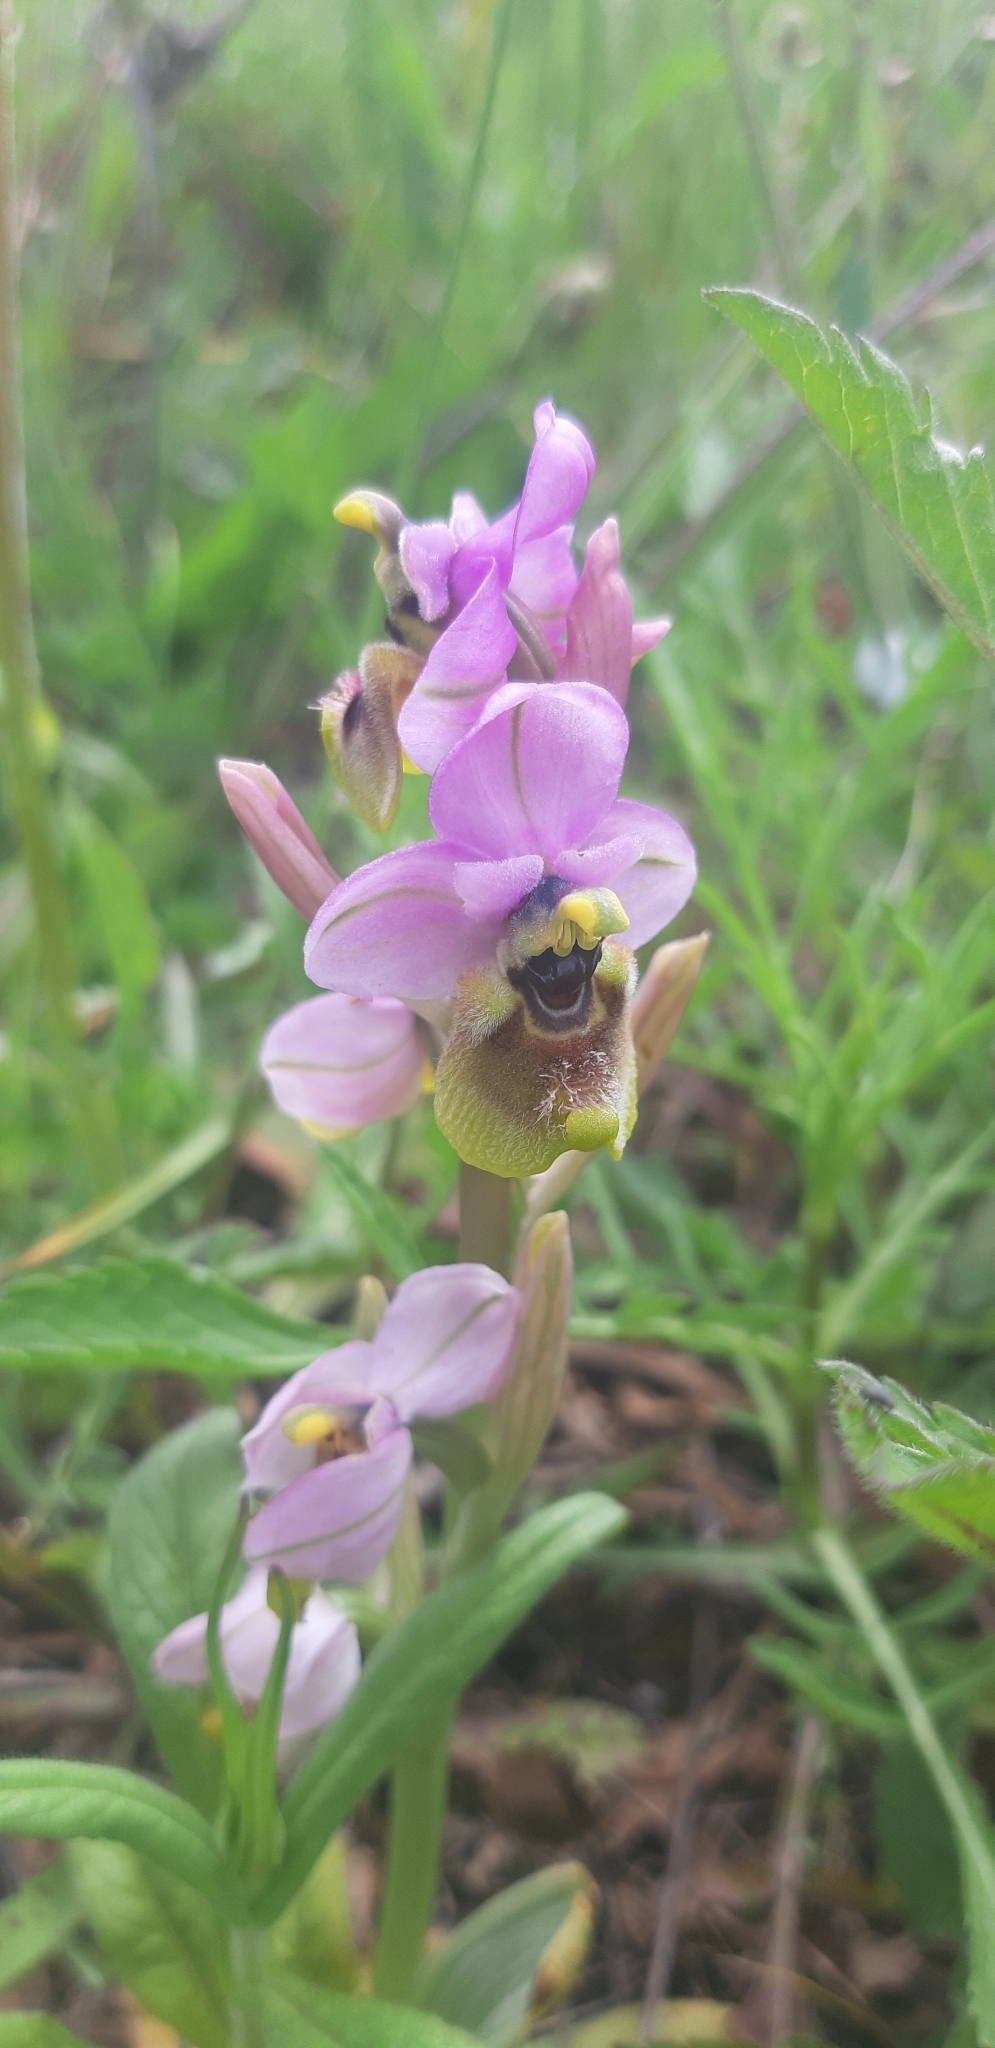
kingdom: Plantae
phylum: Tracheophyta
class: Liliopsida
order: Asparagales
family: Orchidaceae
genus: Ophrys
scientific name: Ophrys tenthredinifera
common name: Sawfly orchid
